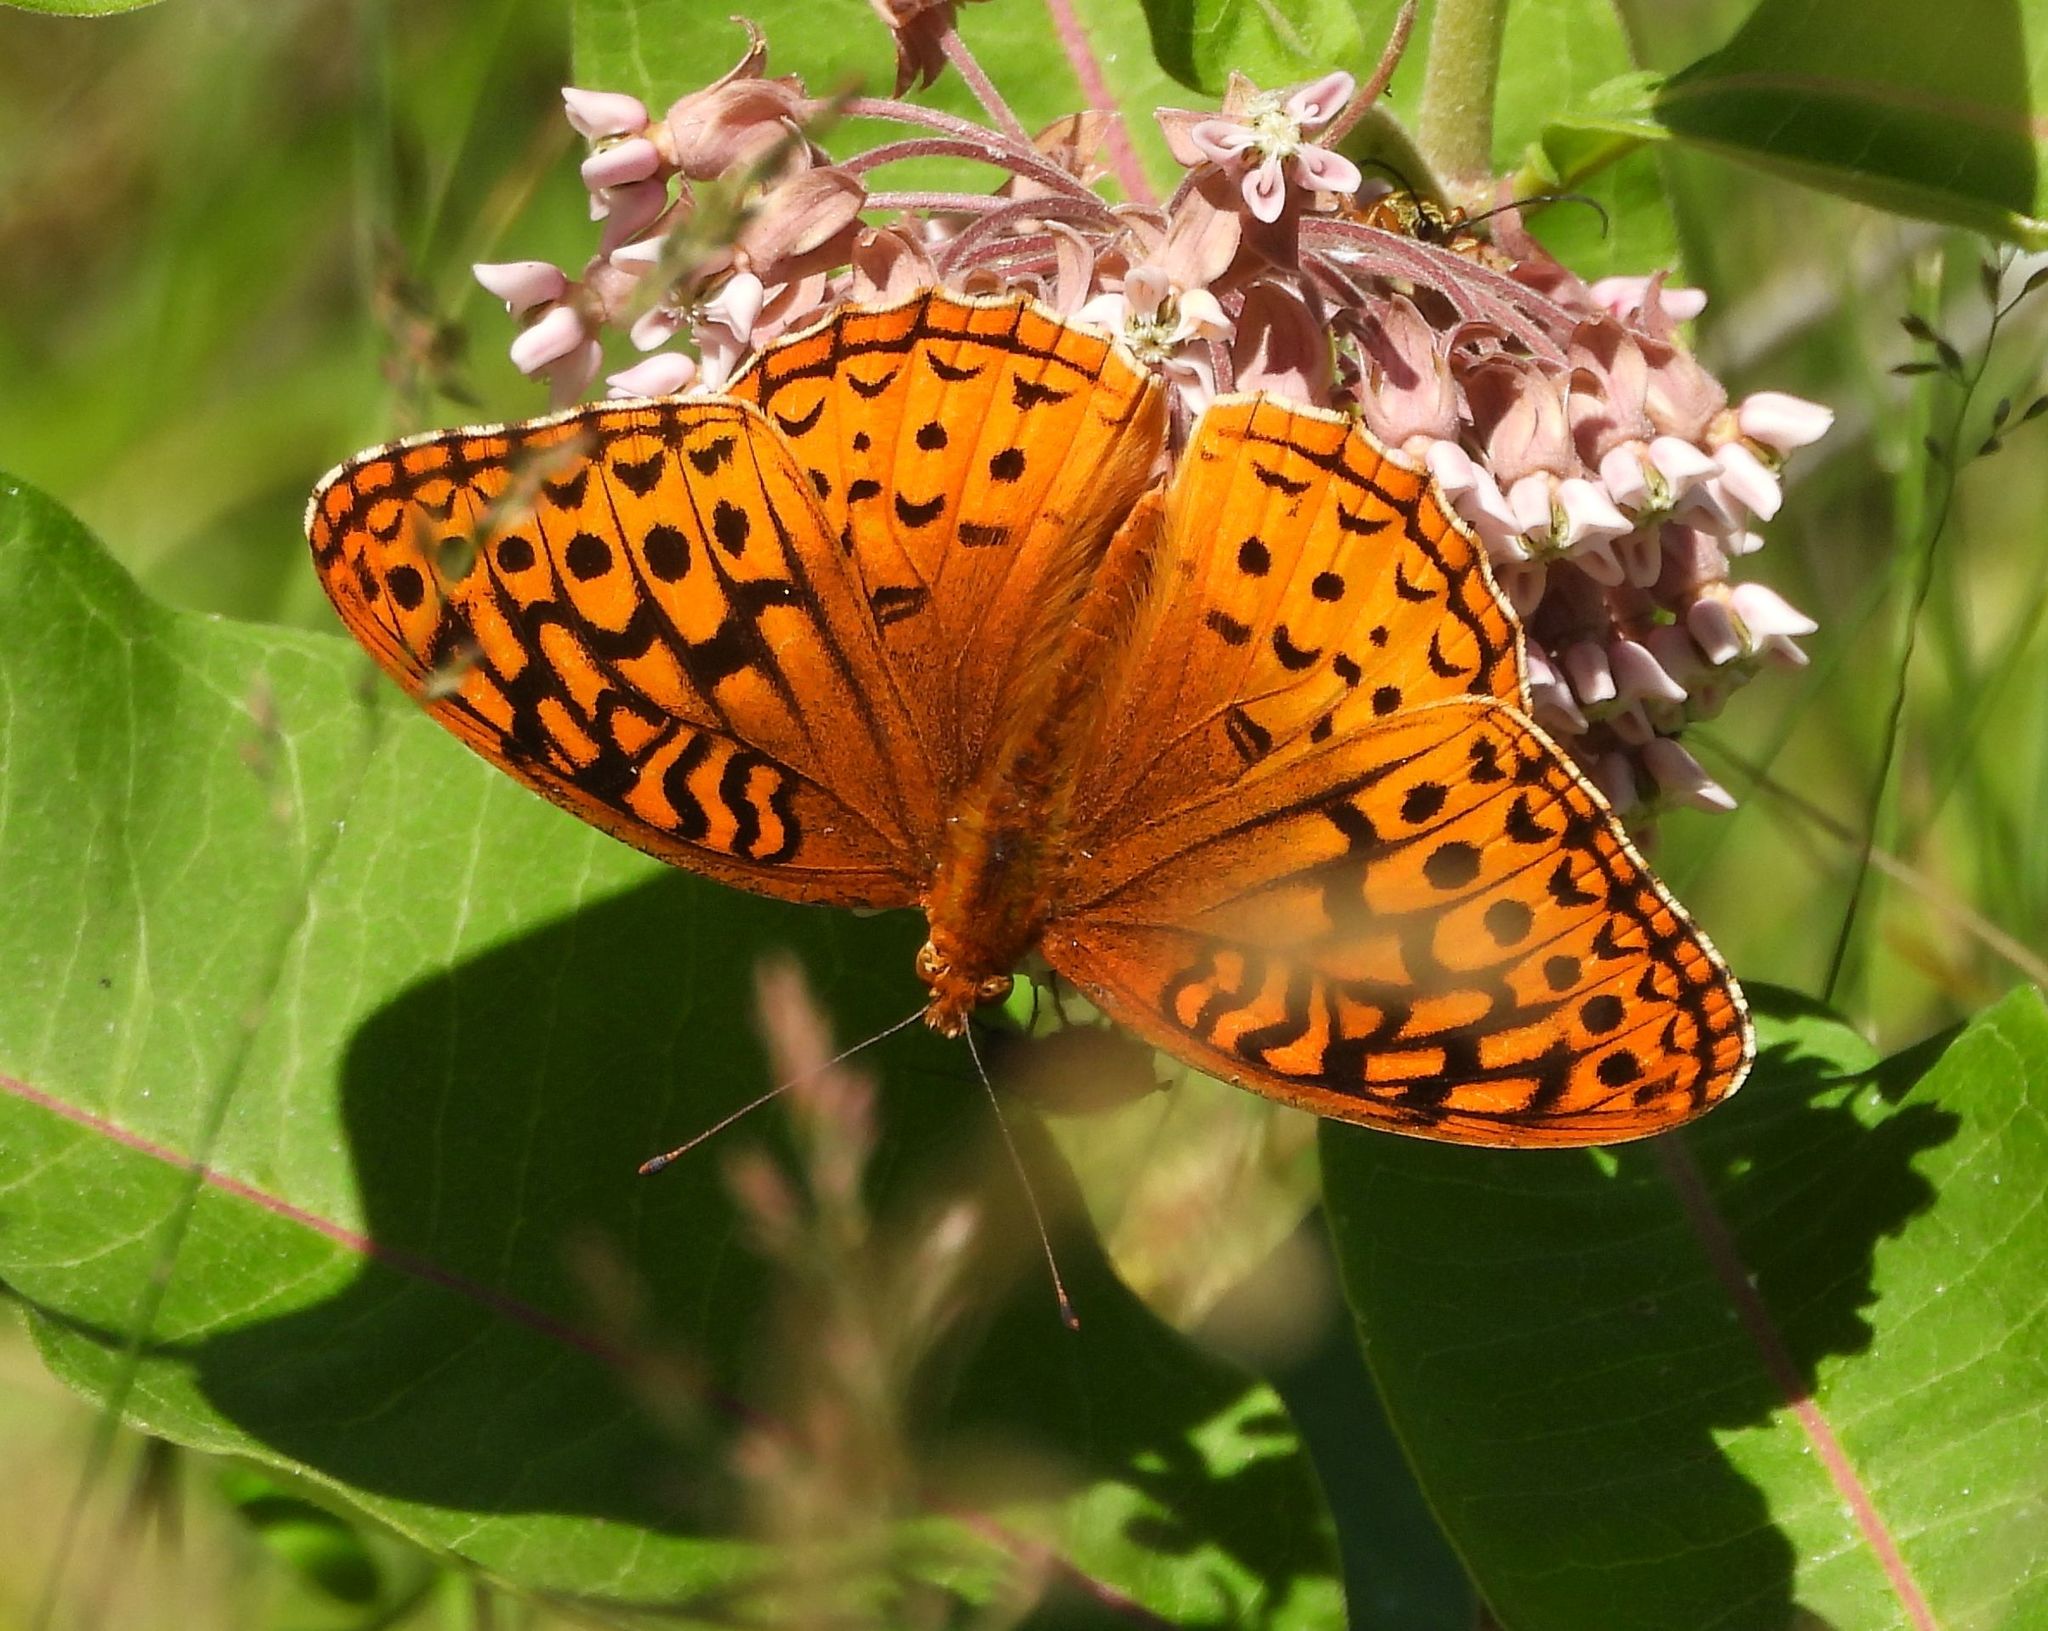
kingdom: Animalia
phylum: Arthropoda
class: Insecta
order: Lepidoptera
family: Nymphalidae
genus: Speyeria
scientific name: Speyeria cybele
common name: Great spangled fritillary
